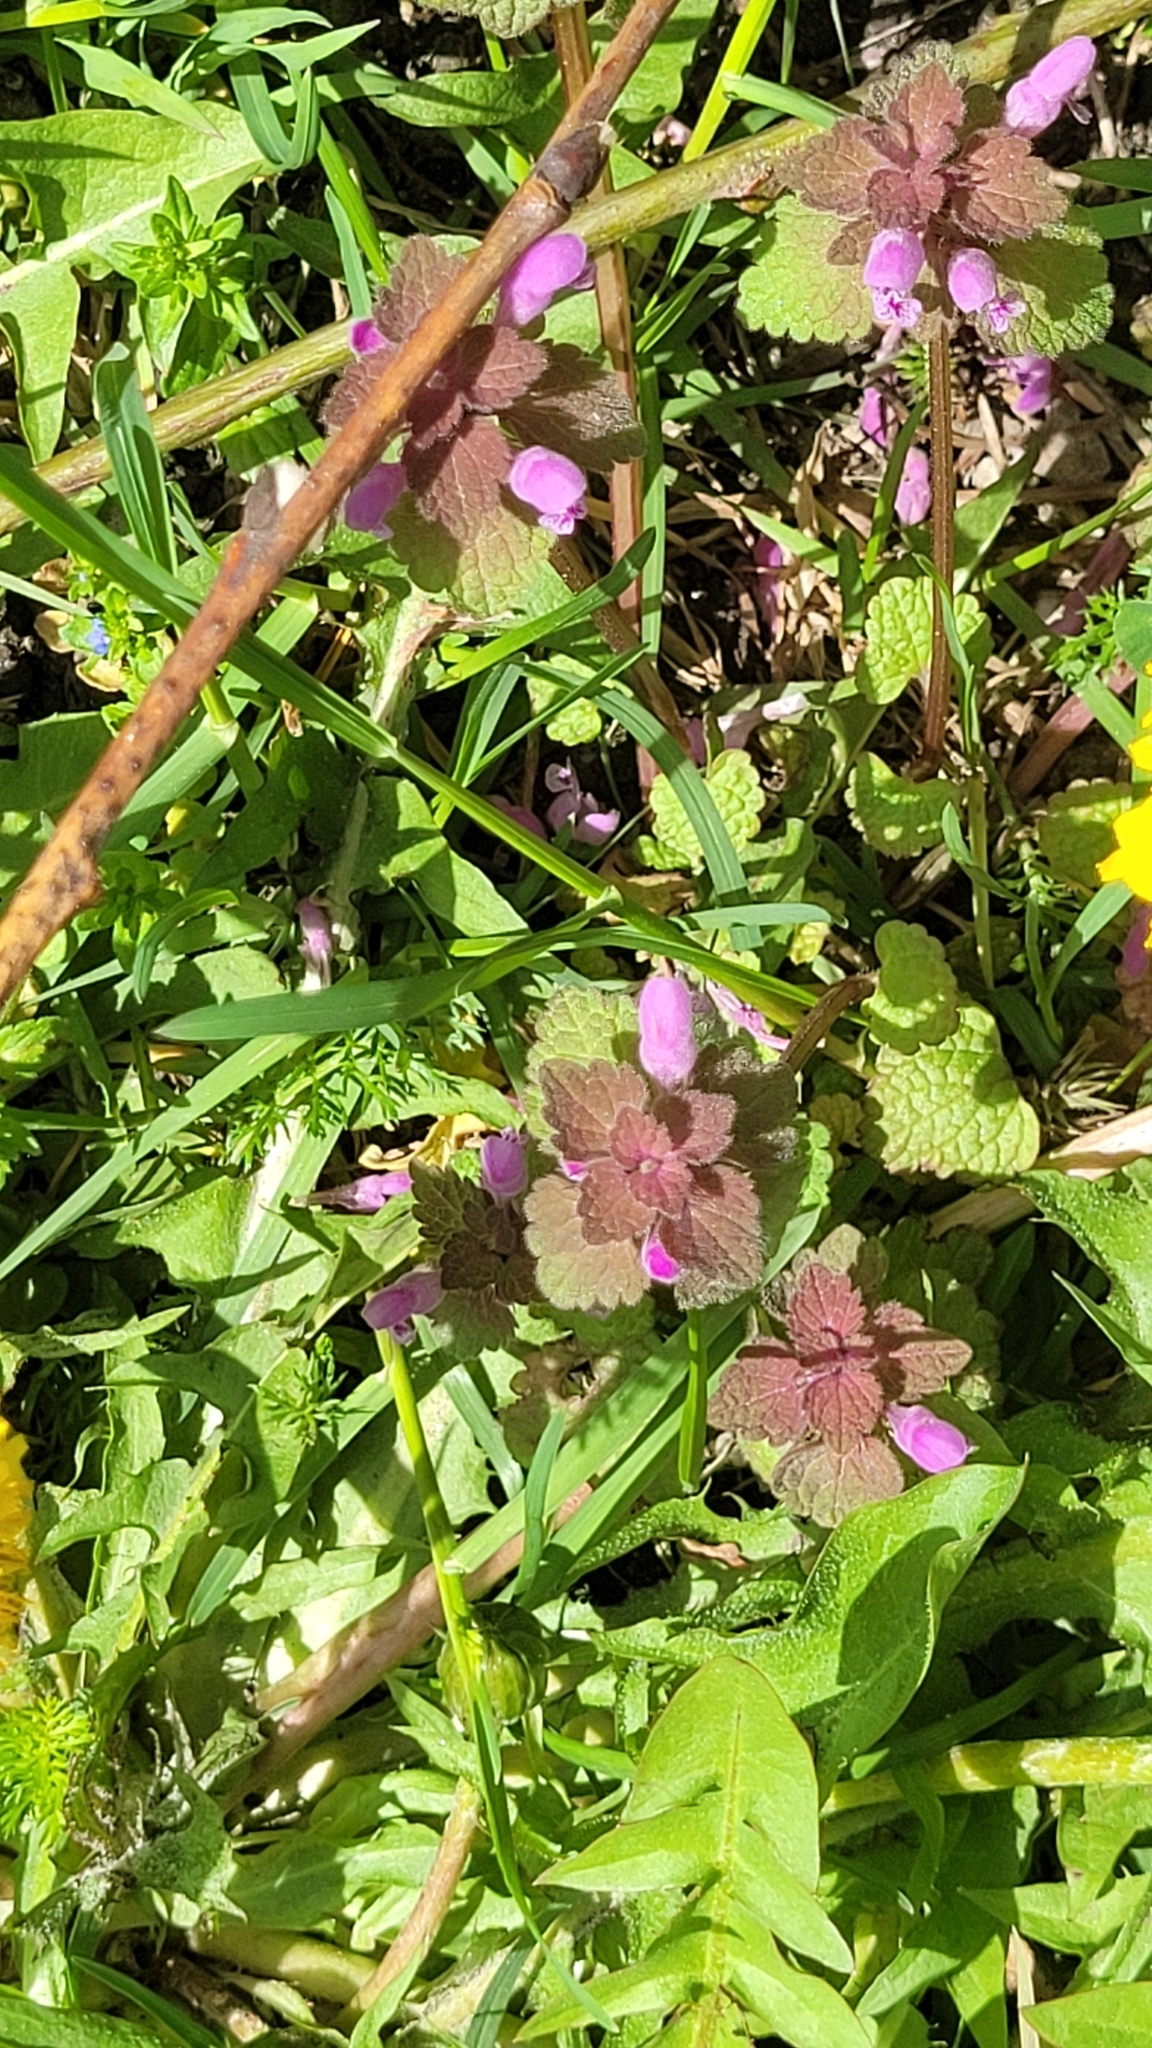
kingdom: Plantae
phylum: Tracheophyta
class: Magnoliopsida
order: Lamiales
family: Lamiaceae
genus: Lamium
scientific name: Lamium purpureum
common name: Red dead-nettle
